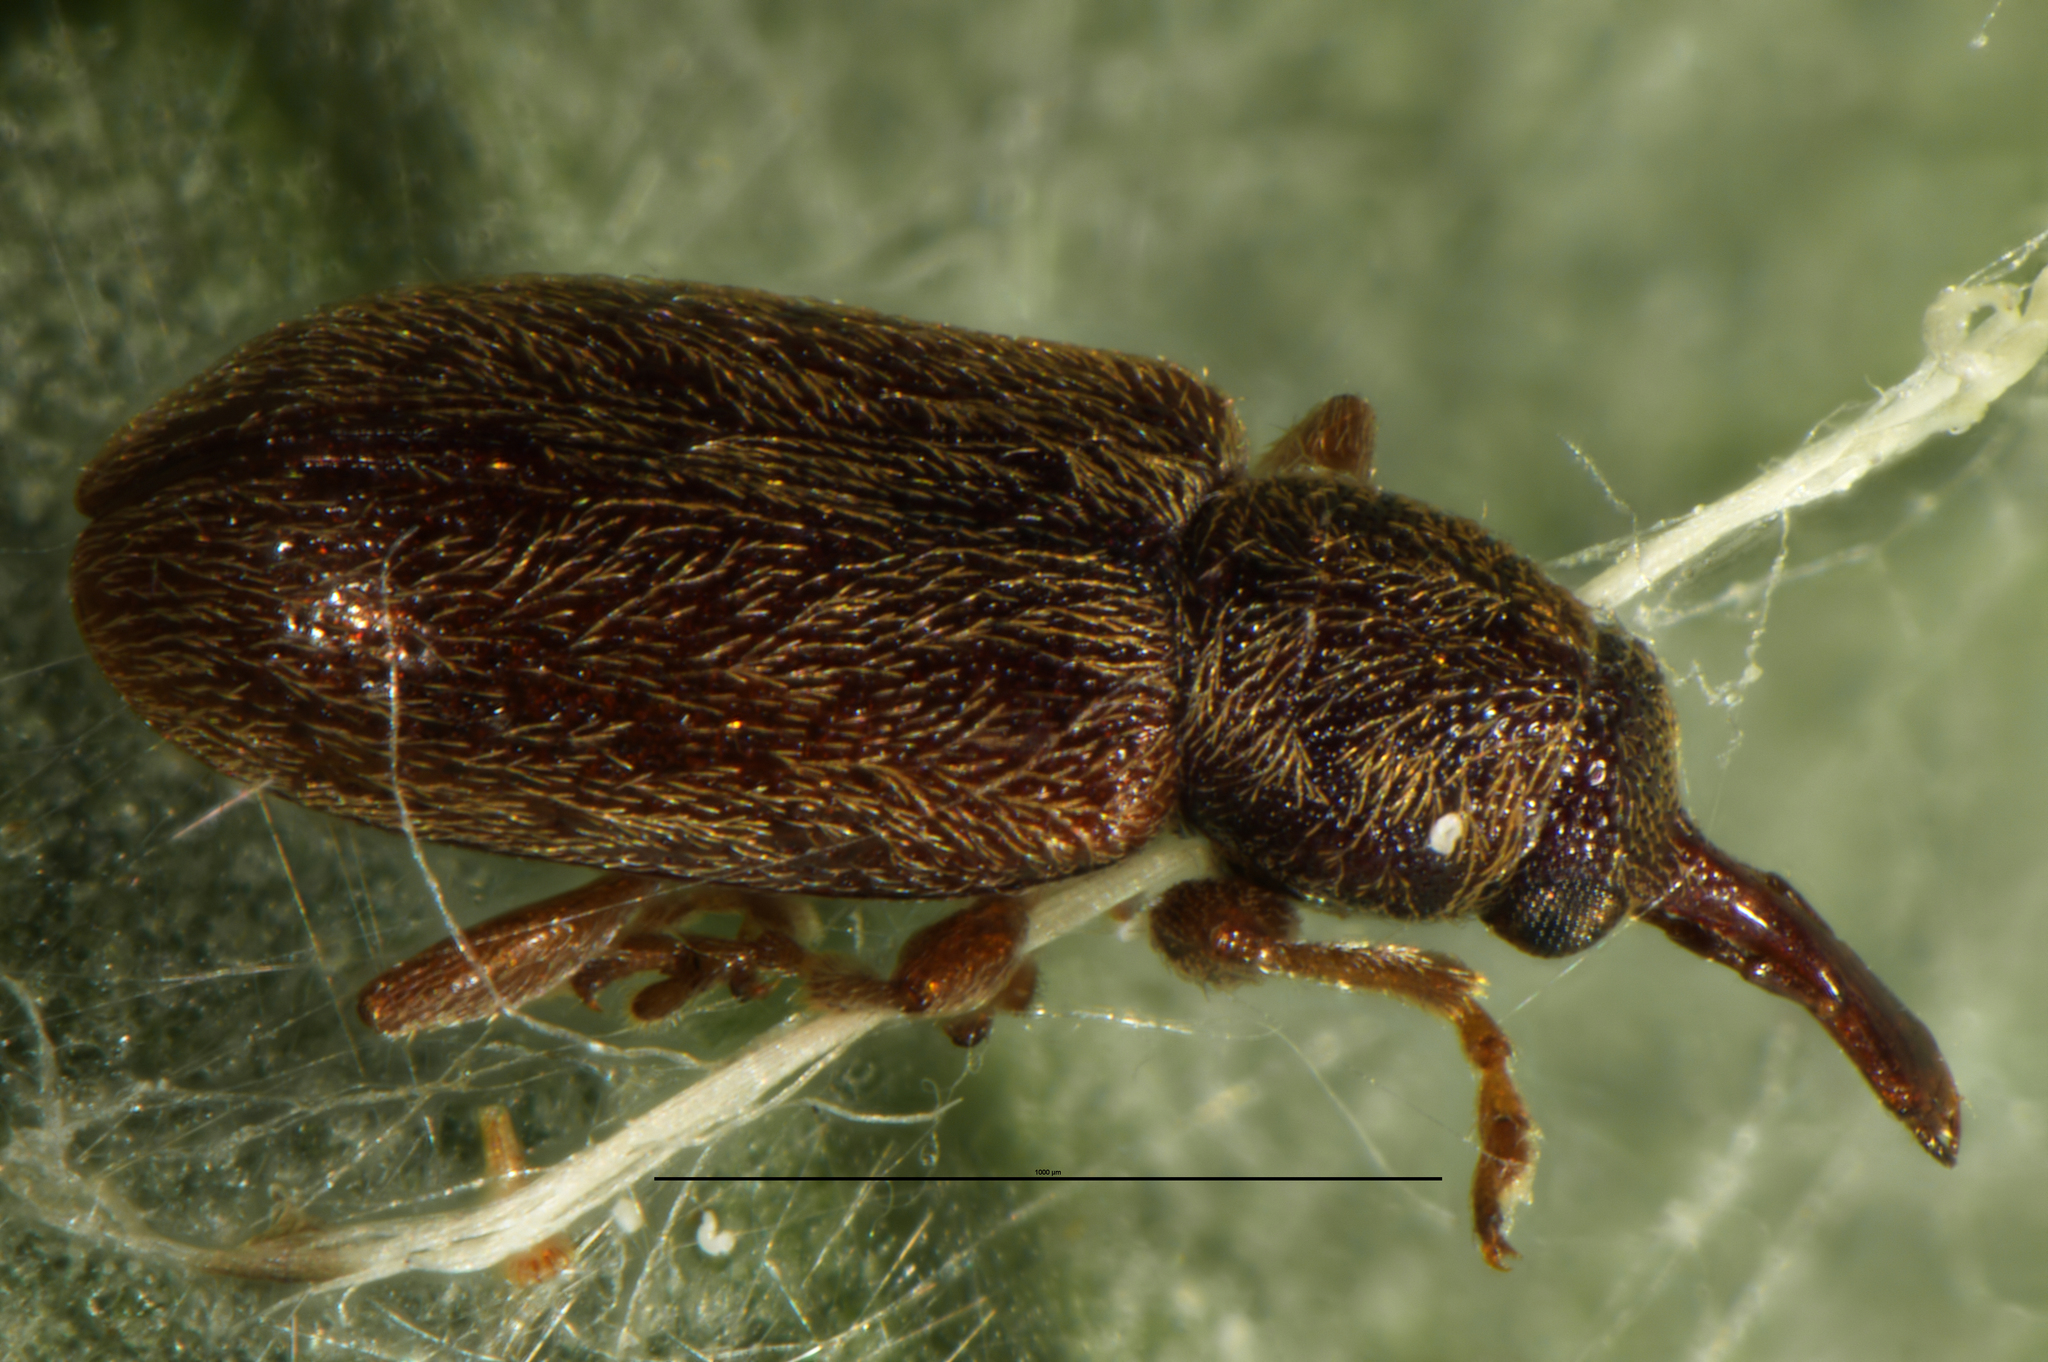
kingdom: Animalia
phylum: Arthropoda
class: Insecta
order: Coleoptera
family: Nemonychidae
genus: Rhinorhynchus
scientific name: Rhinorhynchus rufulus
